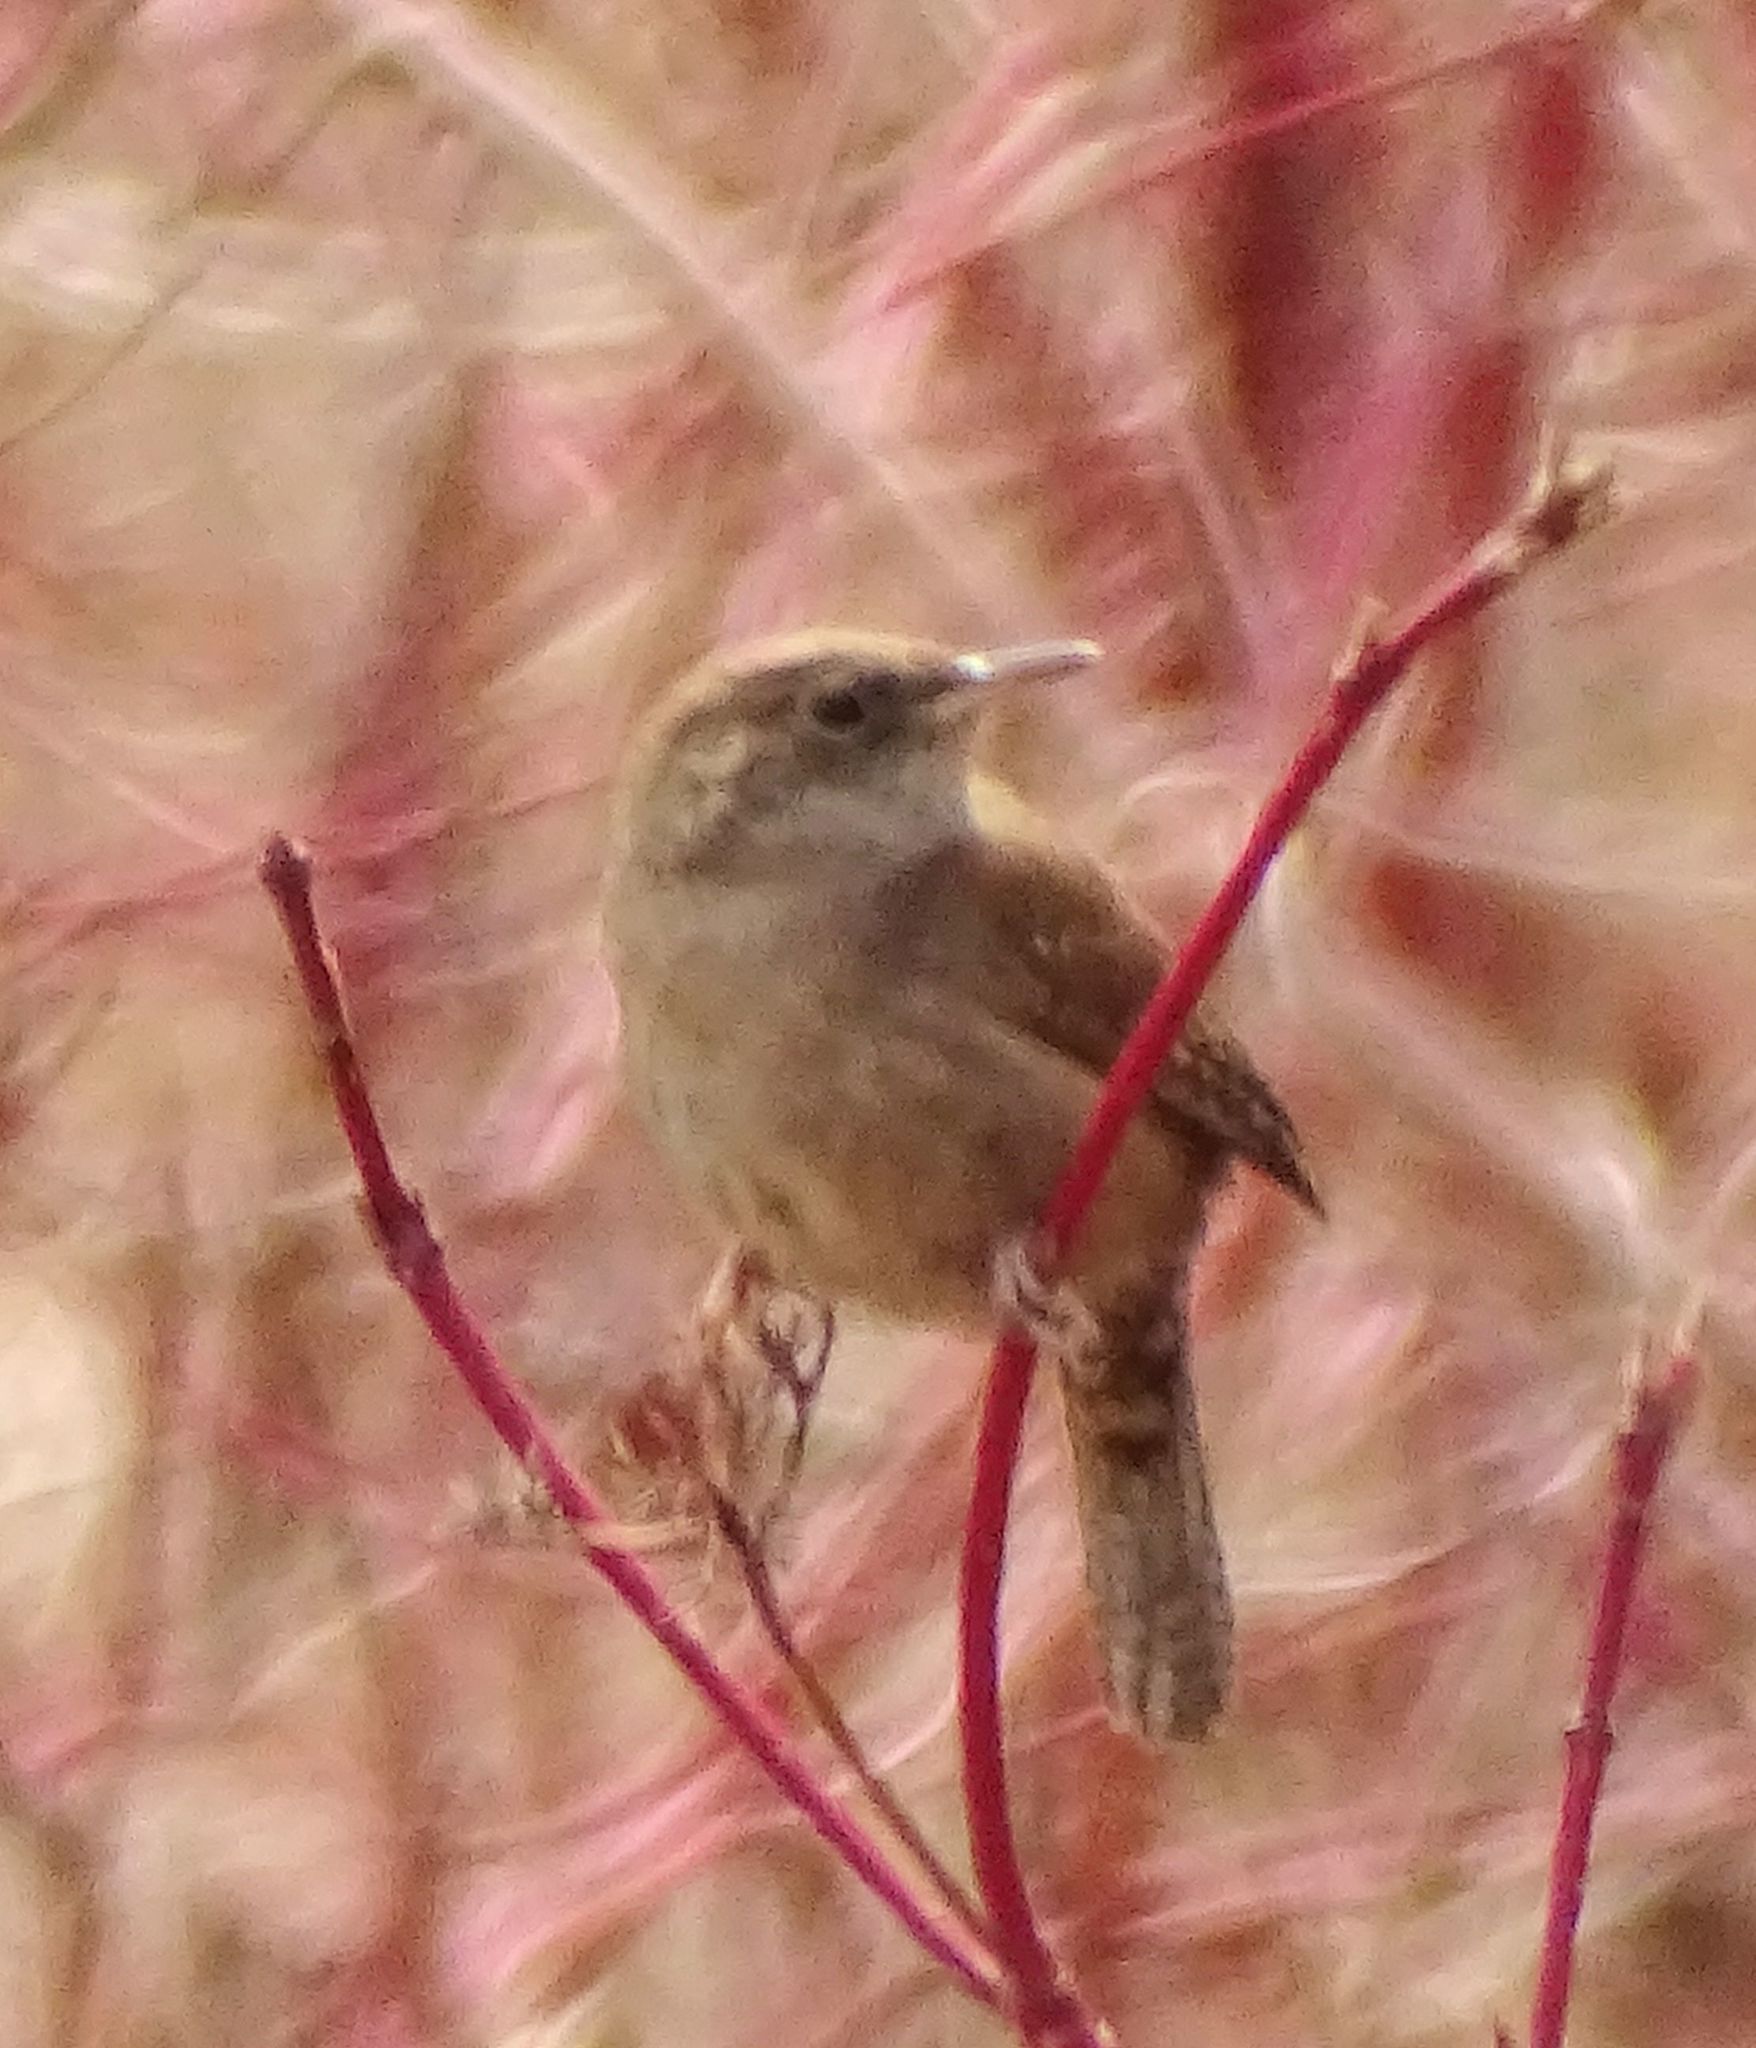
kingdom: Animalia
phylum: Chordata
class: Aves
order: Passeriformes
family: Troglodytidae
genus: Troglodytes
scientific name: Troglodytes aedon
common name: House wren
